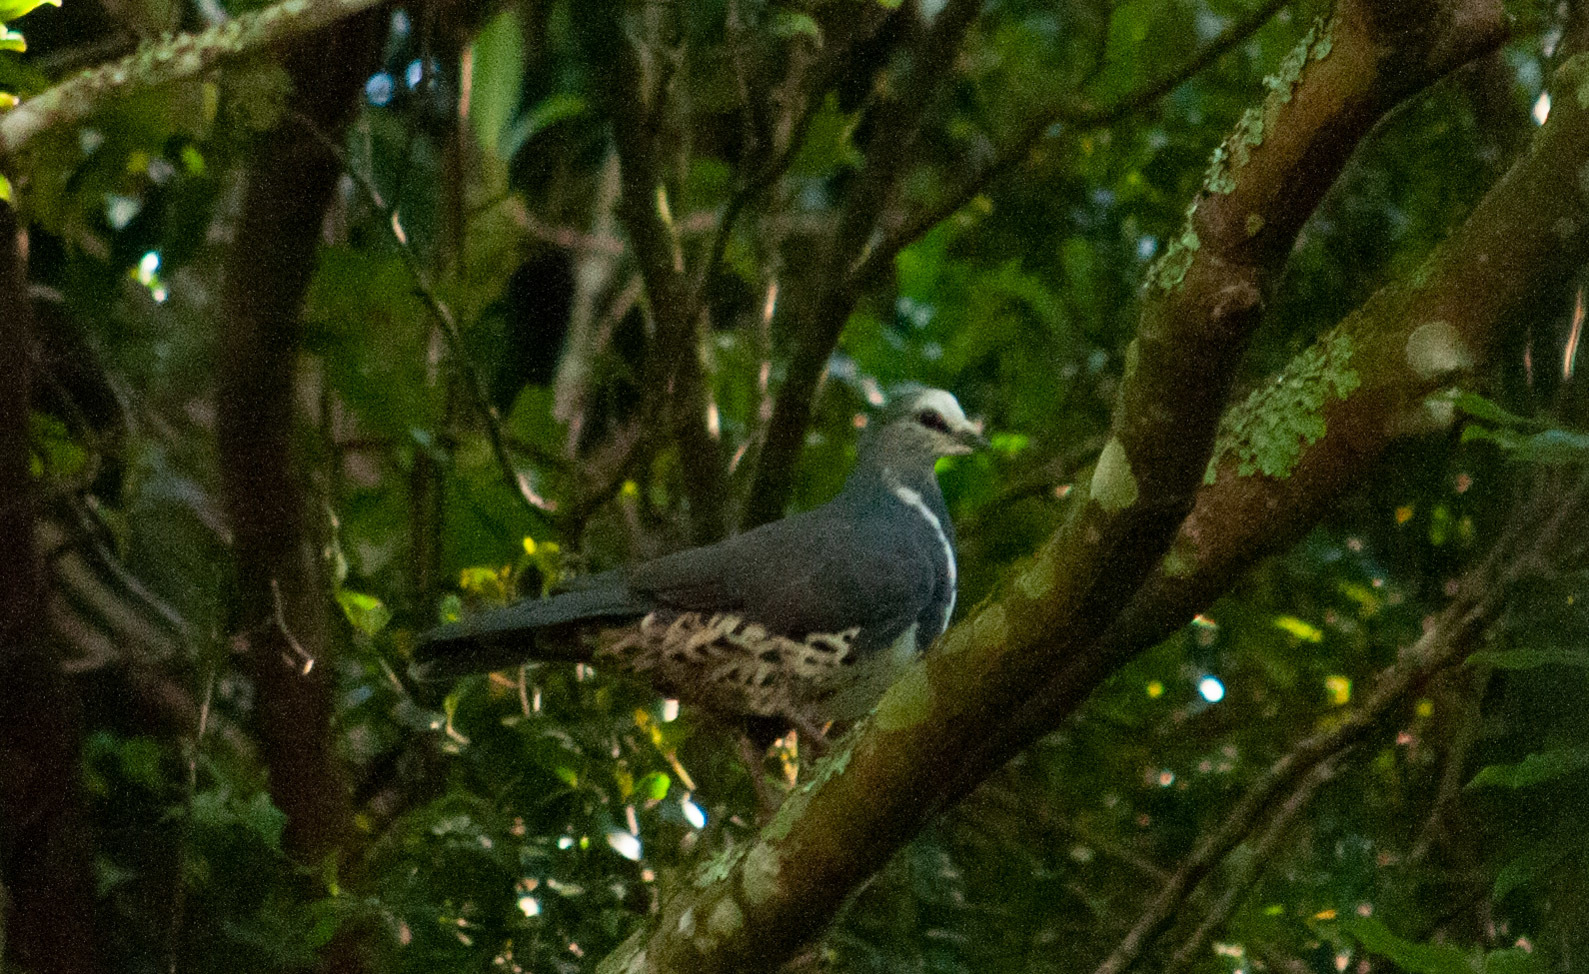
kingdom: Animalia
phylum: Chordata
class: Aves
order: Columbiformes
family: Columbidae
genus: Leucosarcia
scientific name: Leucosarcia melanoleuca
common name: Wonga pigeon
